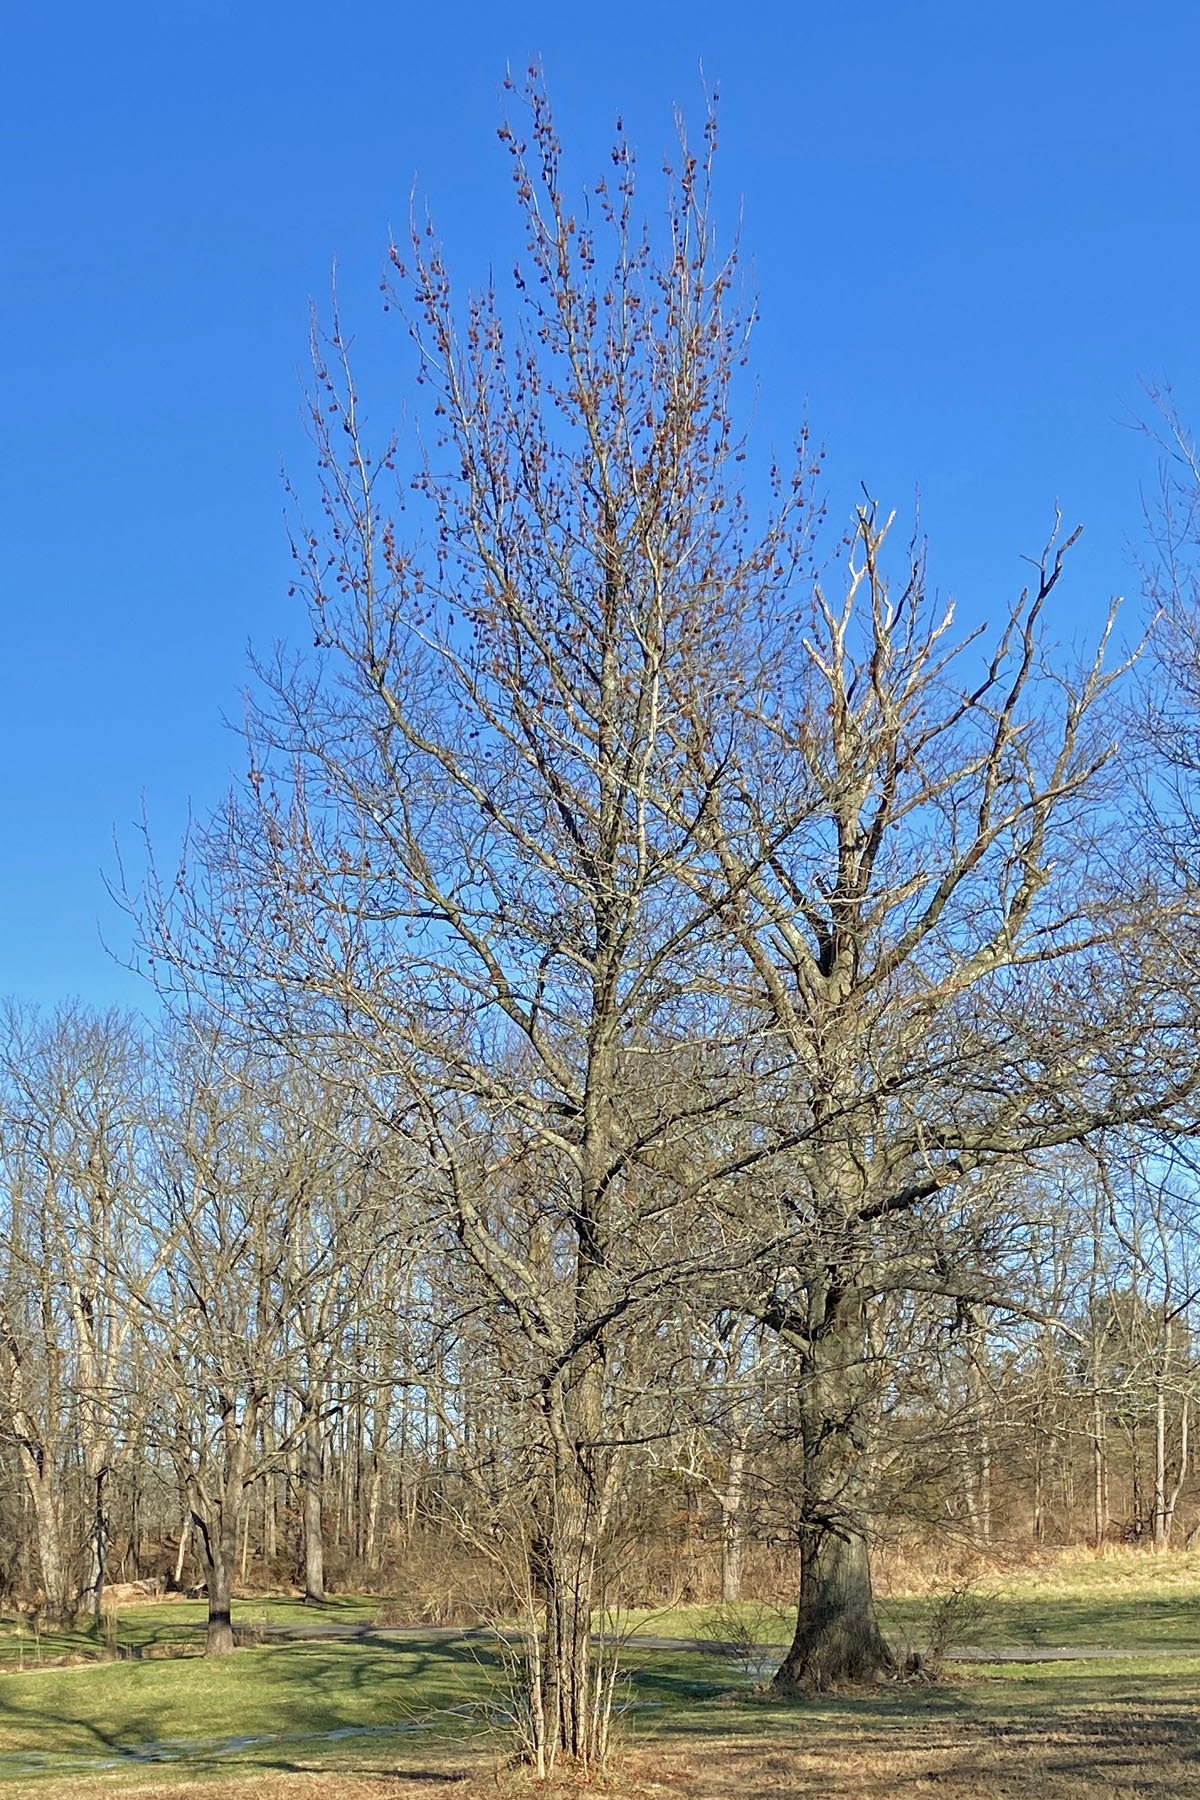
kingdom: Plantae
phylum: Tracheophyta
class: Magnoliopsida
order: Saxifragales
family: Altingiaceae
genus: Liquidambar
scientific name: Liquidambar styraciflua
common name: Sweet gum
